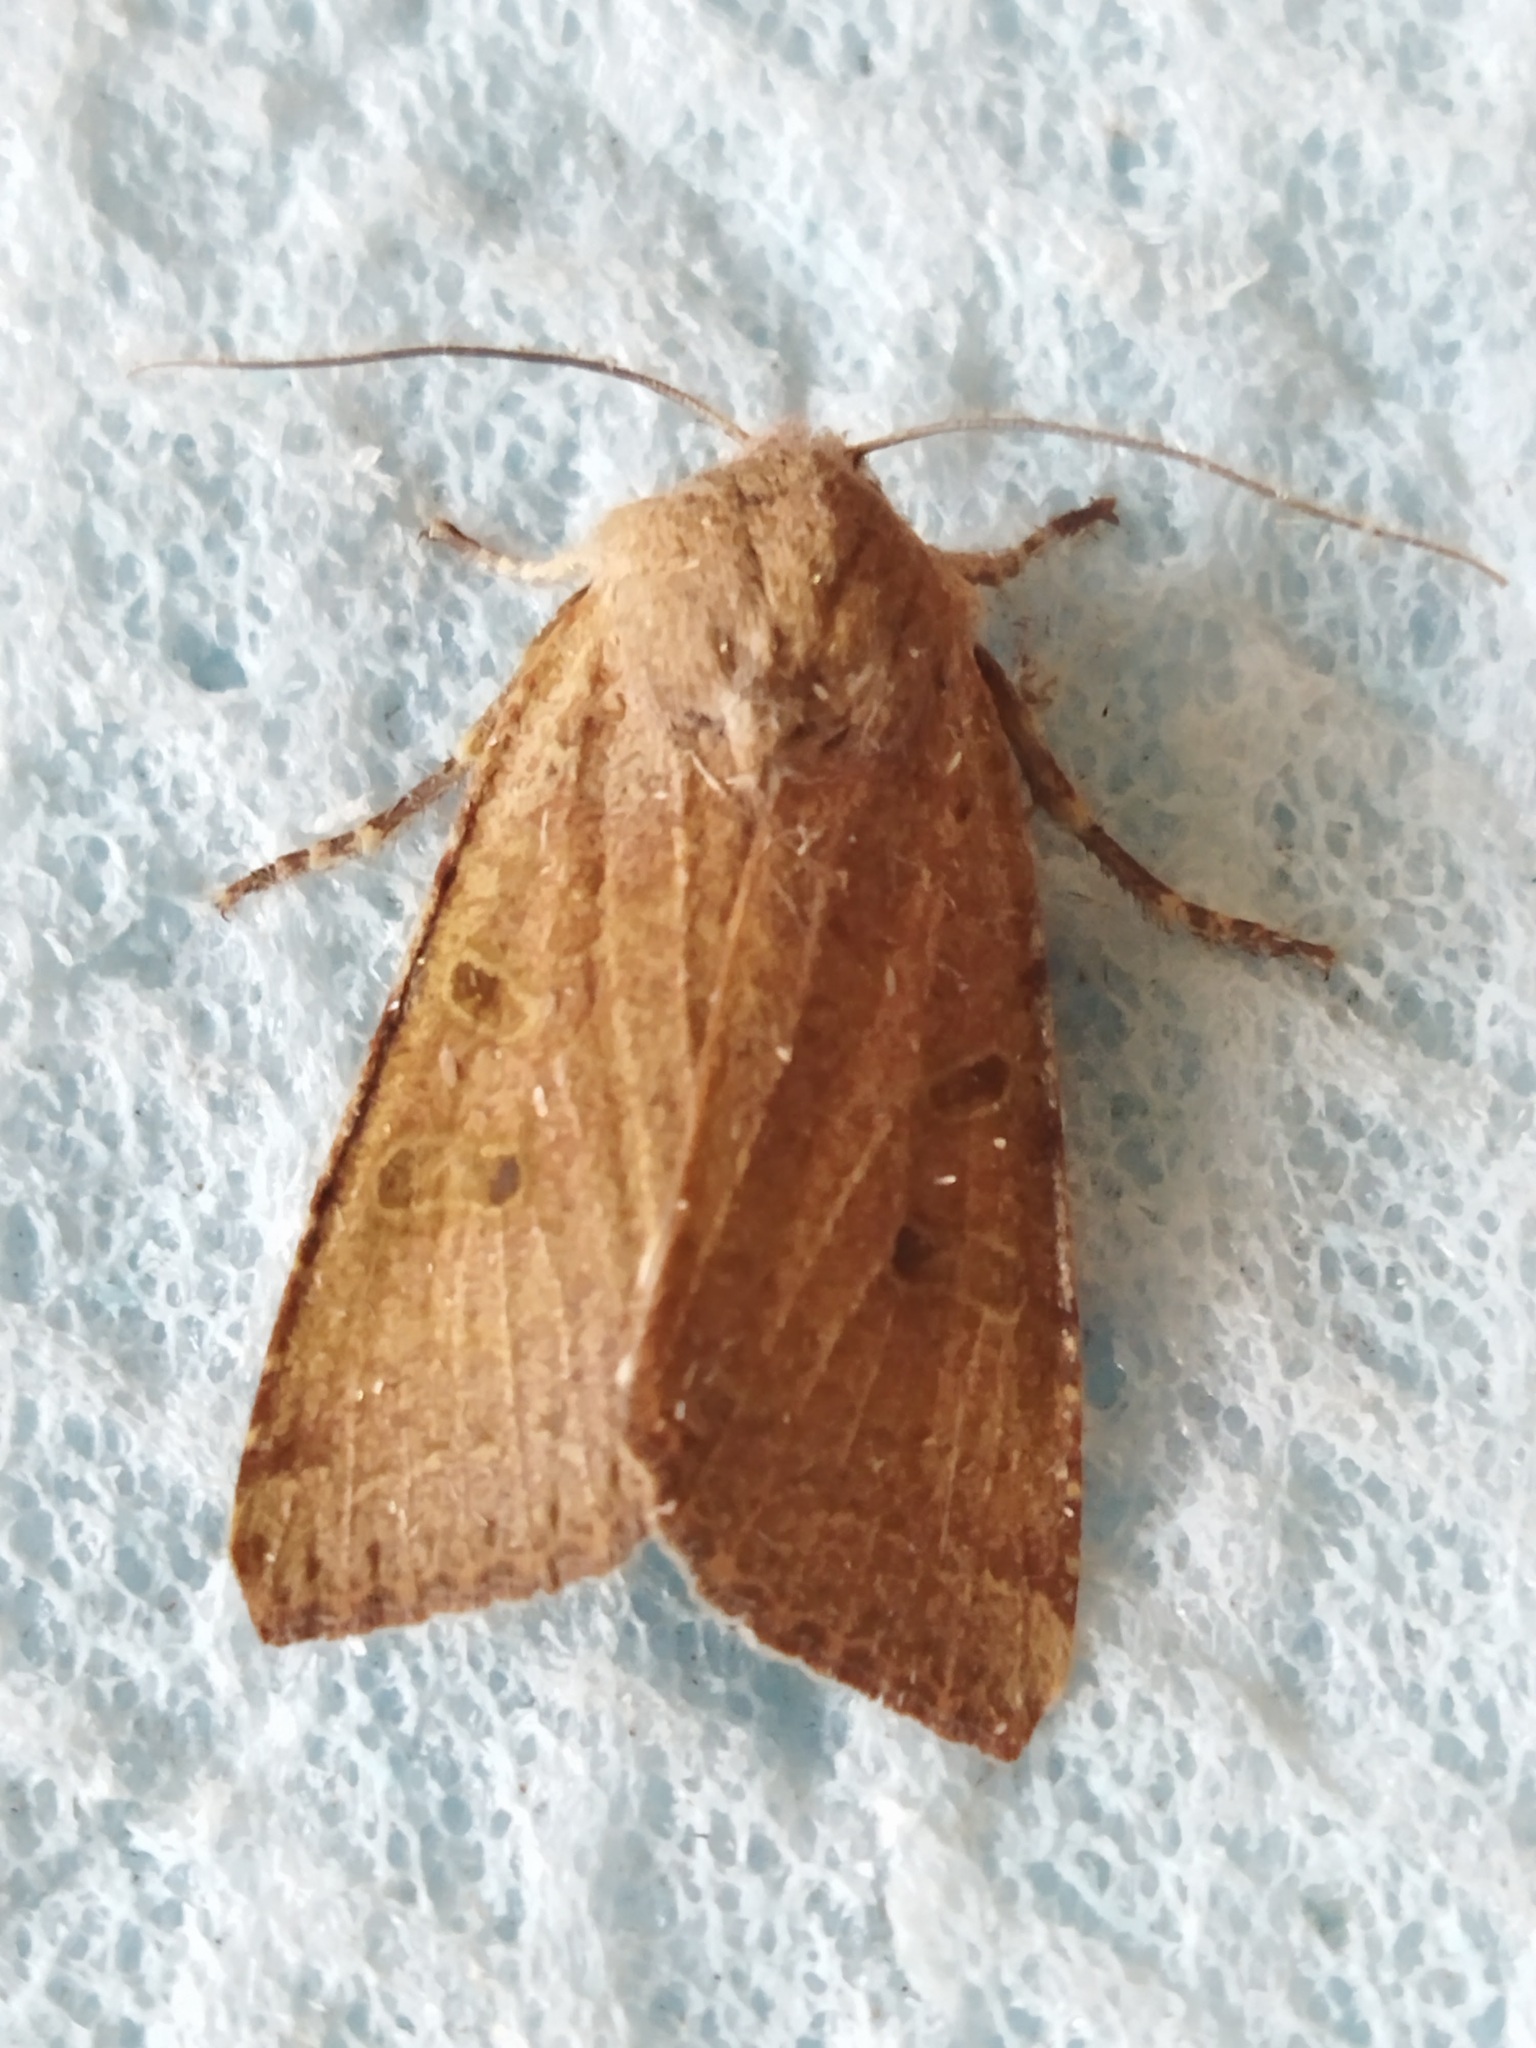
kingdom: Animalia
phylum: Arthropoda
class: Insecta
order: Lepidoptera
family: Noctuidae
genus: Agrochola
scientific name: Agrochola lychnidis
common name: Beaded chestnut
